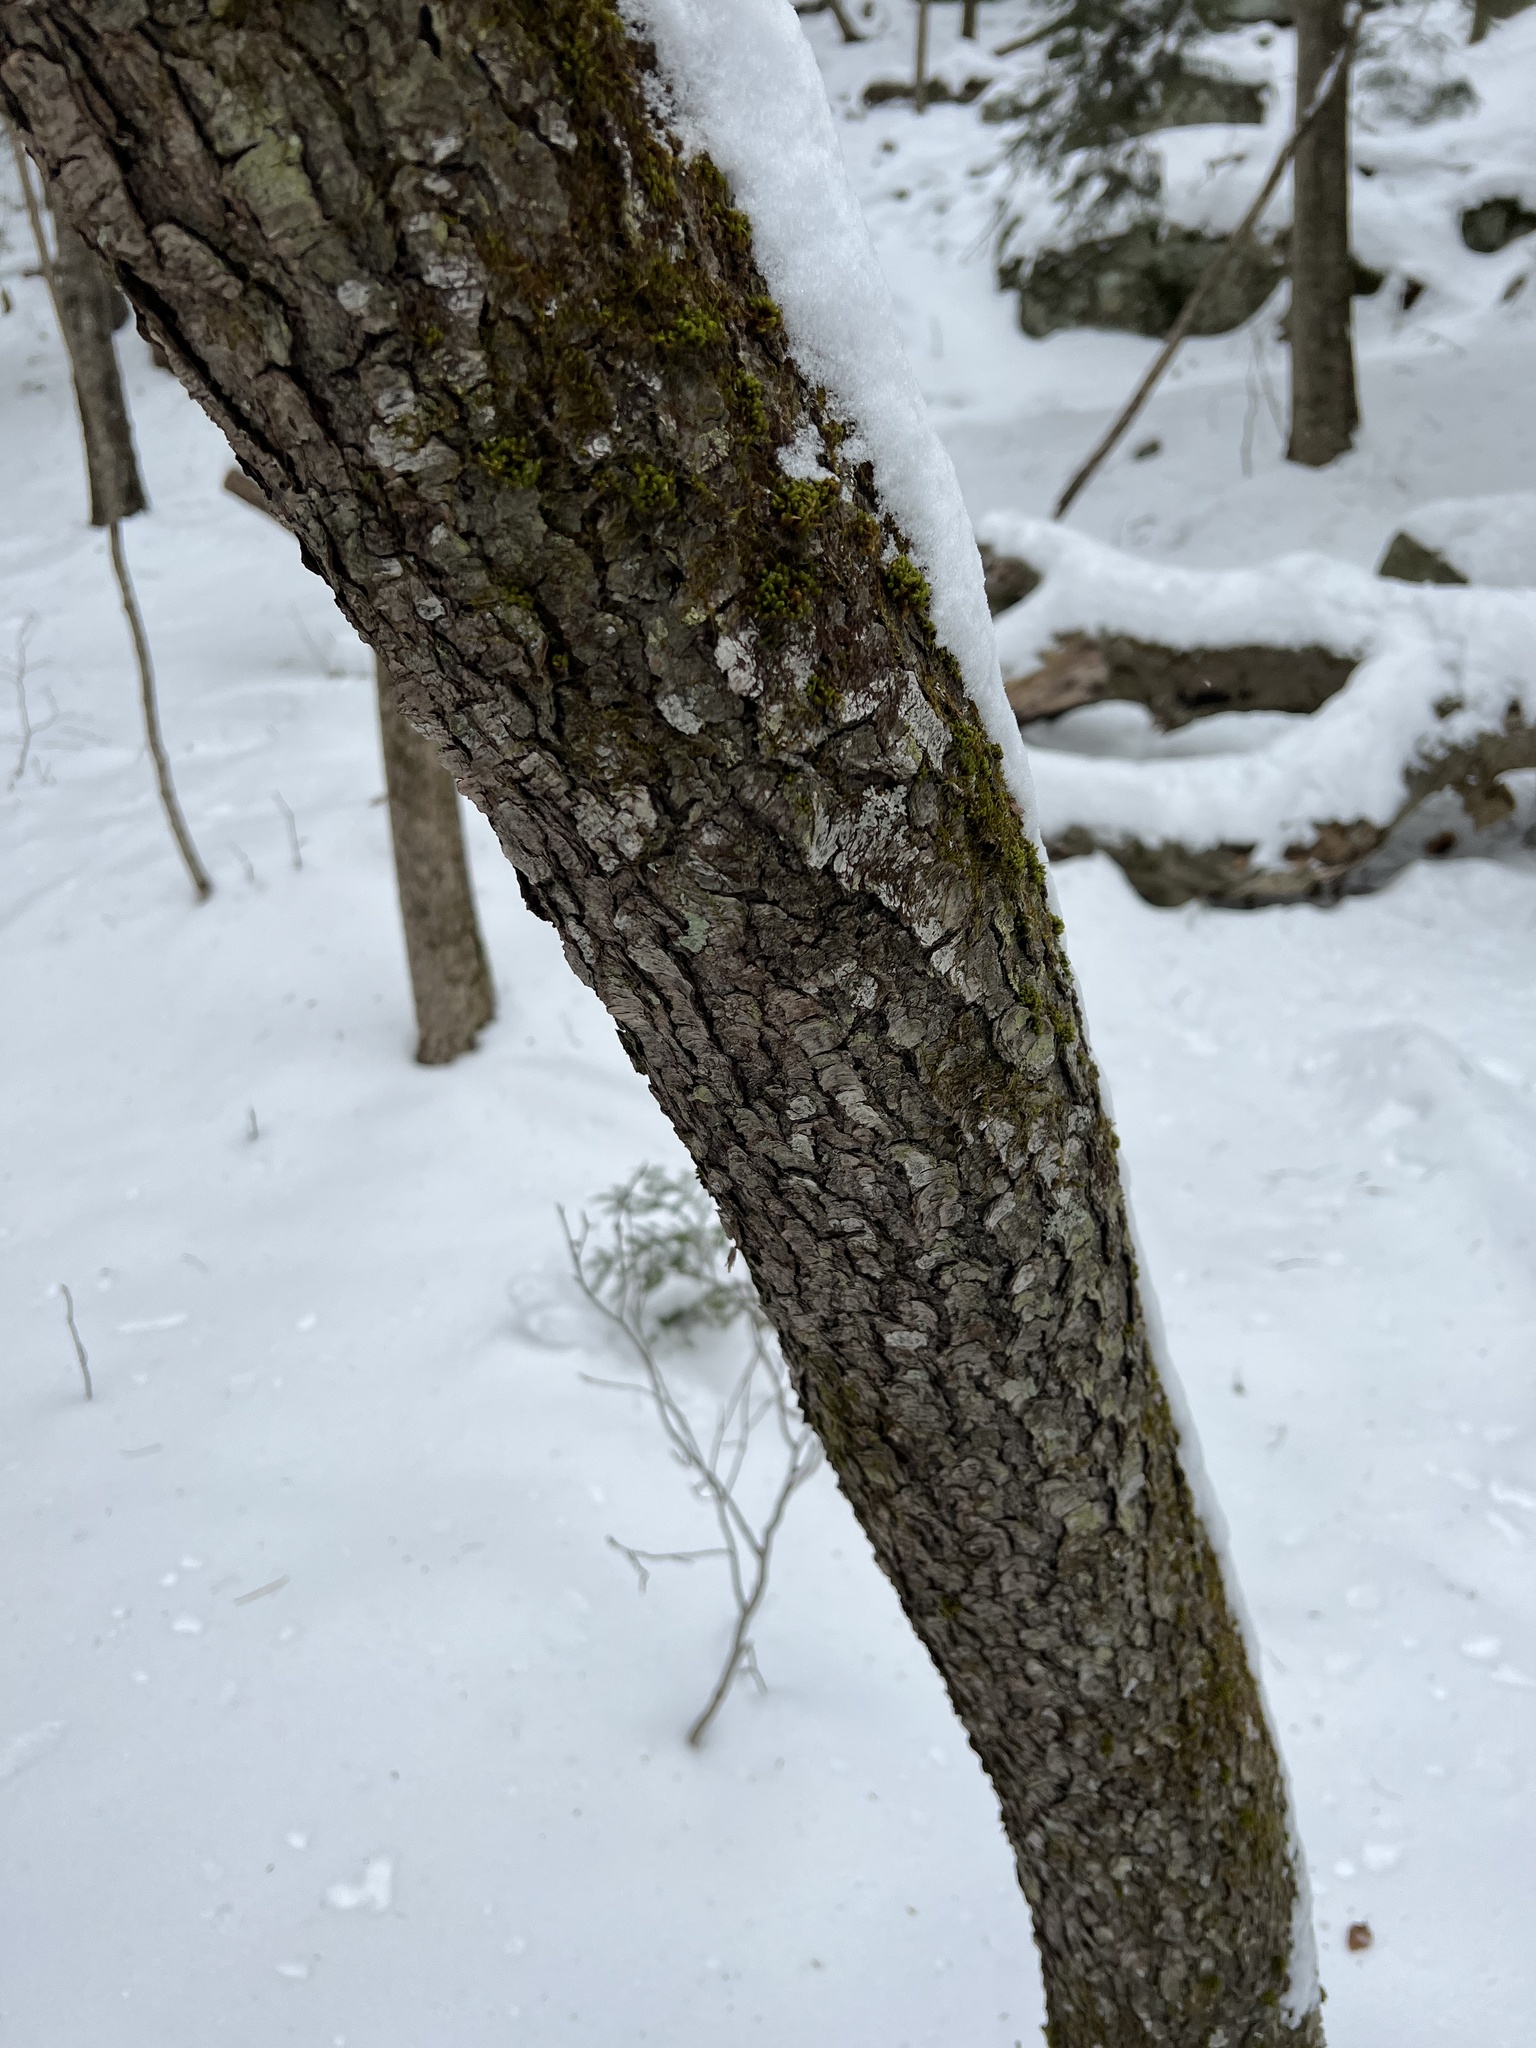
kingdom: Plantae
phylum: Tracheophyta
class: Magnoliopsida
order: Rosales
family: Rosaceae
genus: Prunus
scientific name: Prunus serotina
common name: Black cherry
